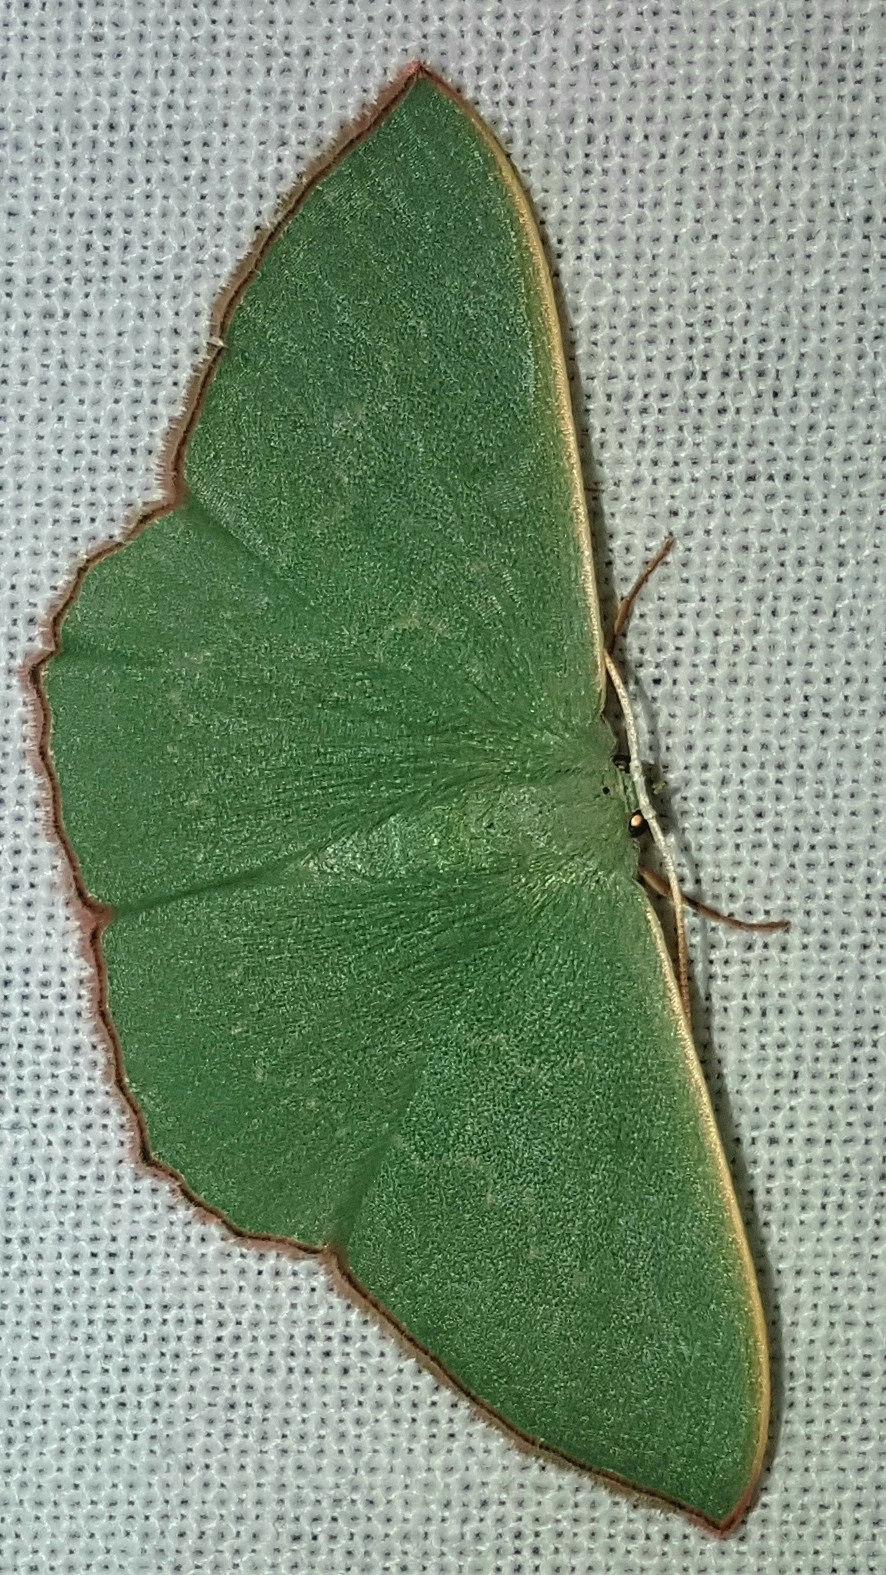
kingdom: Animalia
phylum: Arthropoda
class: Insecta
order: Lepidoptera
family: Geometridae
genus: Prasinocyma
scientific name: Prasinocyma semicrocea
